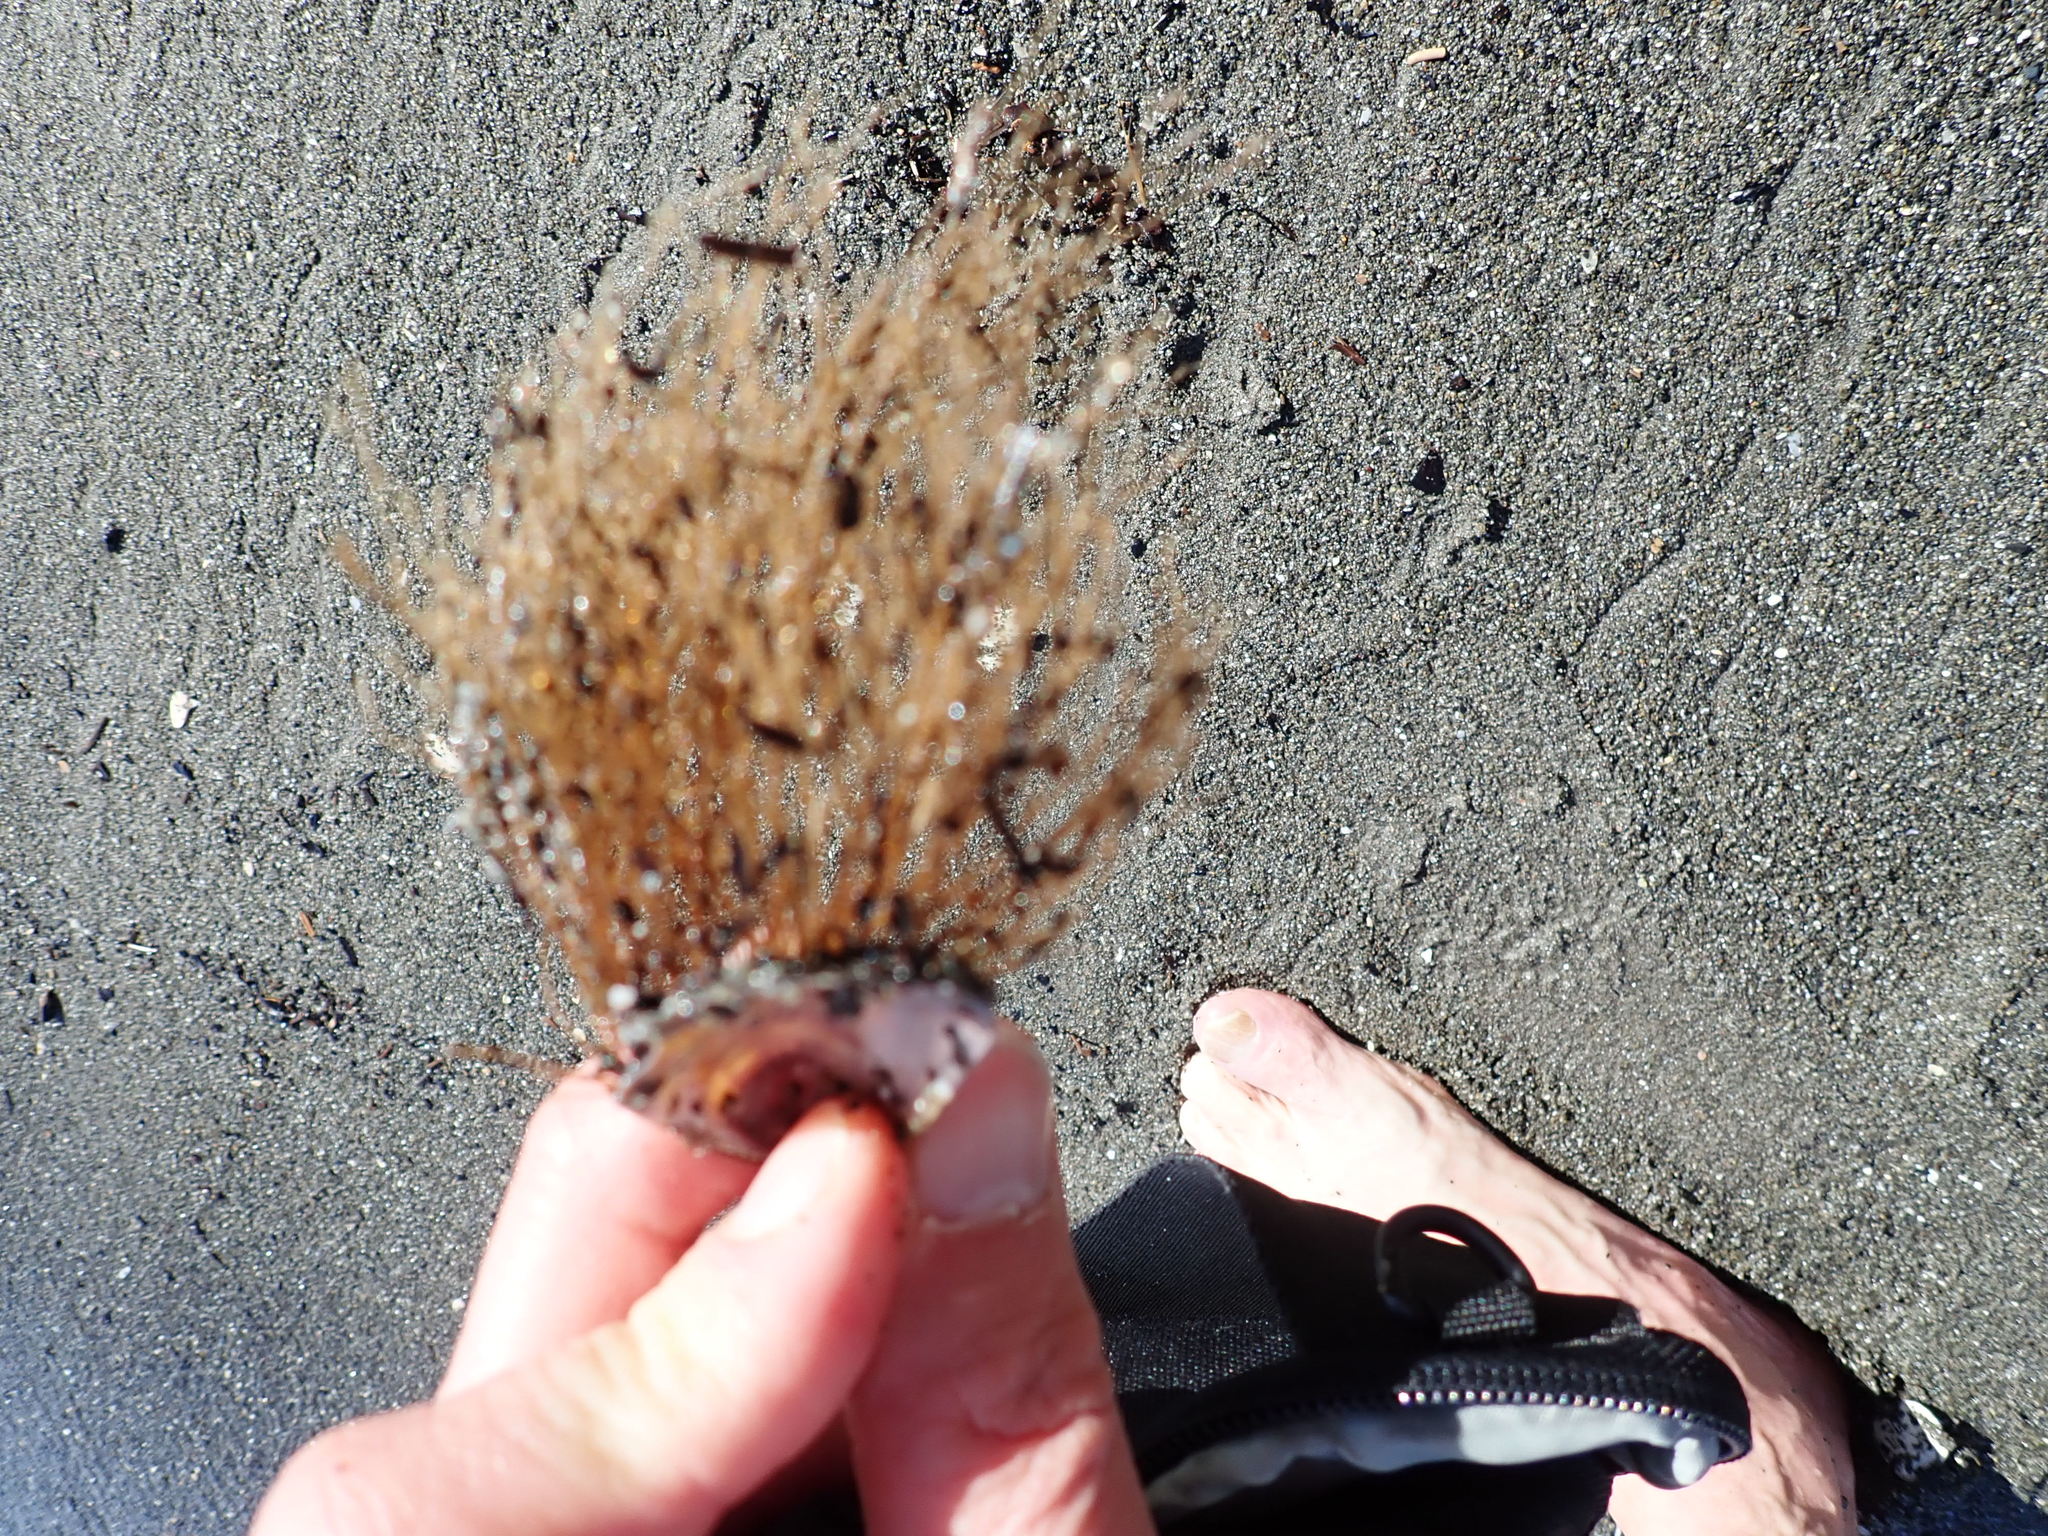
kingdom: Animalia
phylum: Cnidaria
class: Hydrozoa
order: Leptothecata
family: Sertulariidae
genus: Amphisbetia
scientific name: Amphisbetia bispinosa
